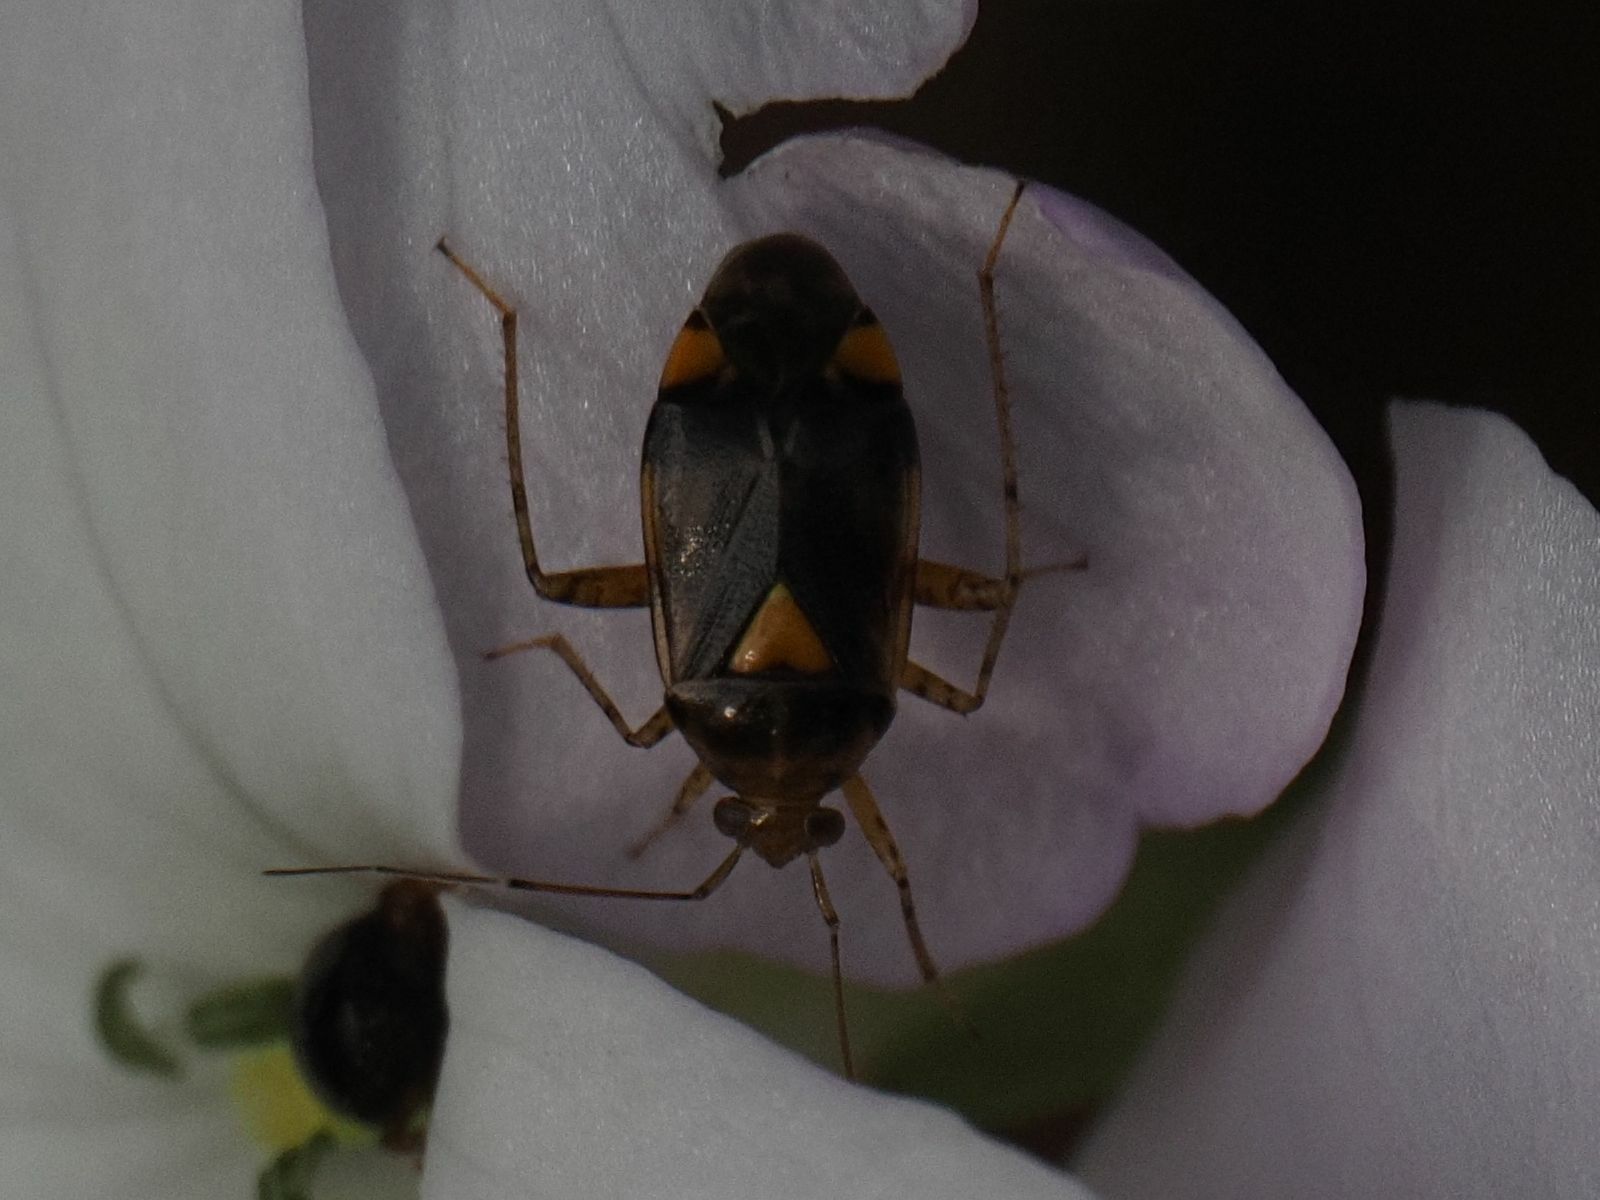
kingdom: Animalia
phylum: Arthropoda
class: Insecta
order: Hemiptera
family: Miridae
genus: Liocoris
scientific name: Liocoris tripustulatus
